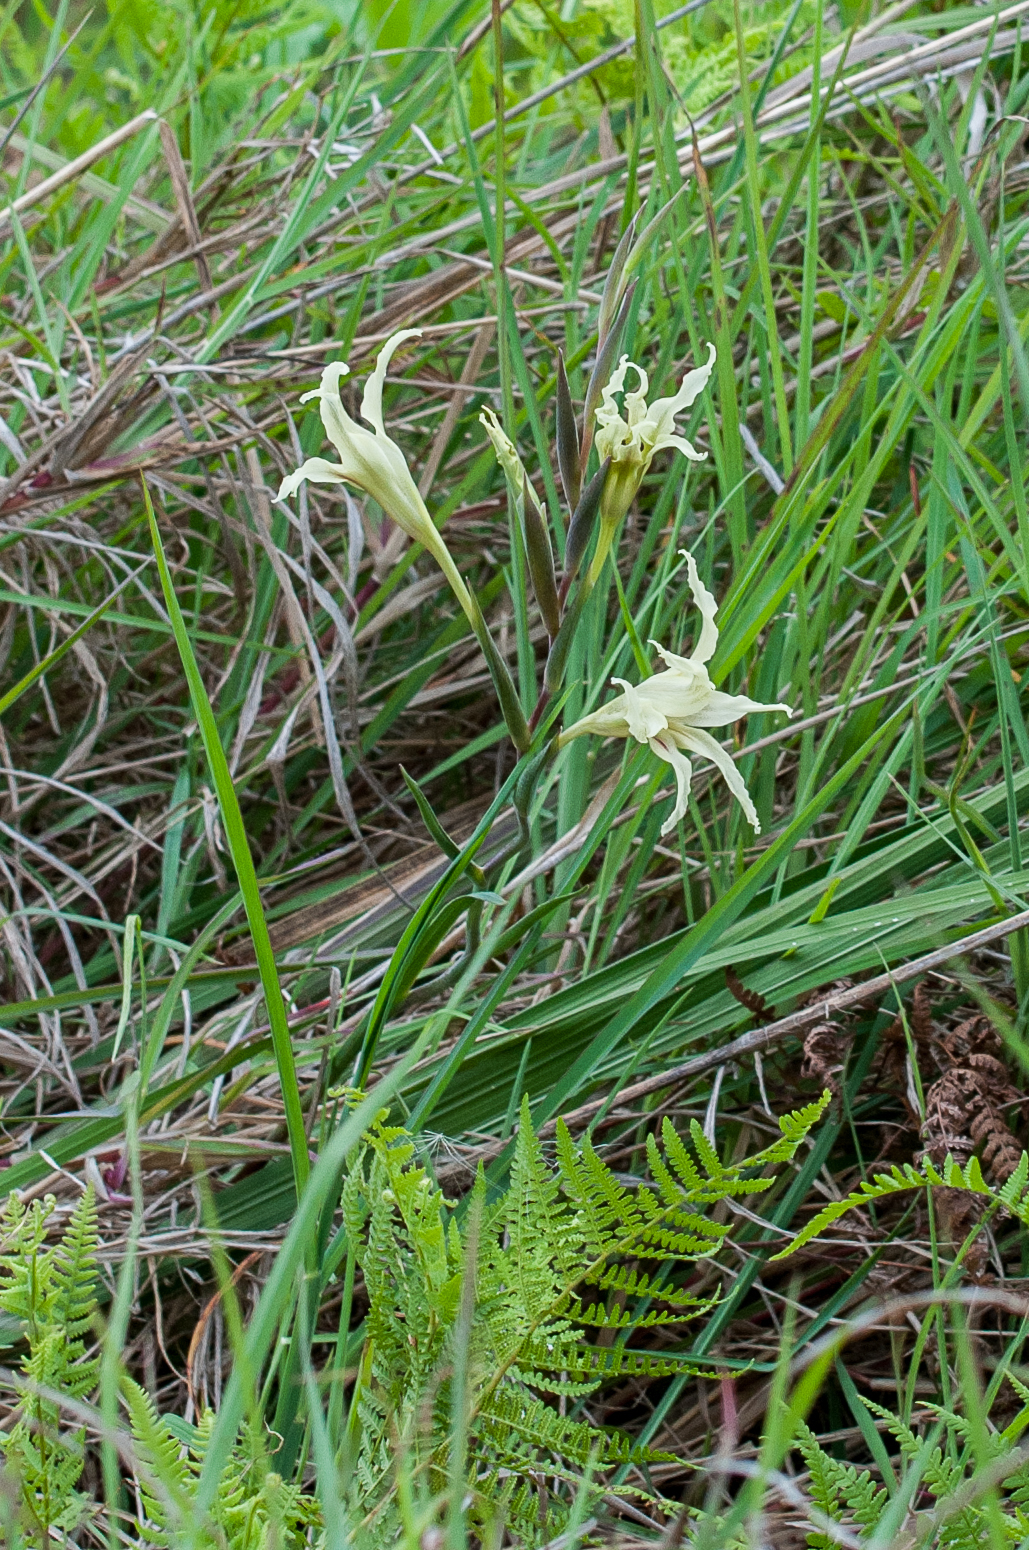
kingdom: Plantae
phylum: Tracheophyta
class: Liliopsida
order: Asparagales
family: Iridaceae
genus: Gladiolus
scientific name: Gladiolus undulatus
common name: Large painted-lady
